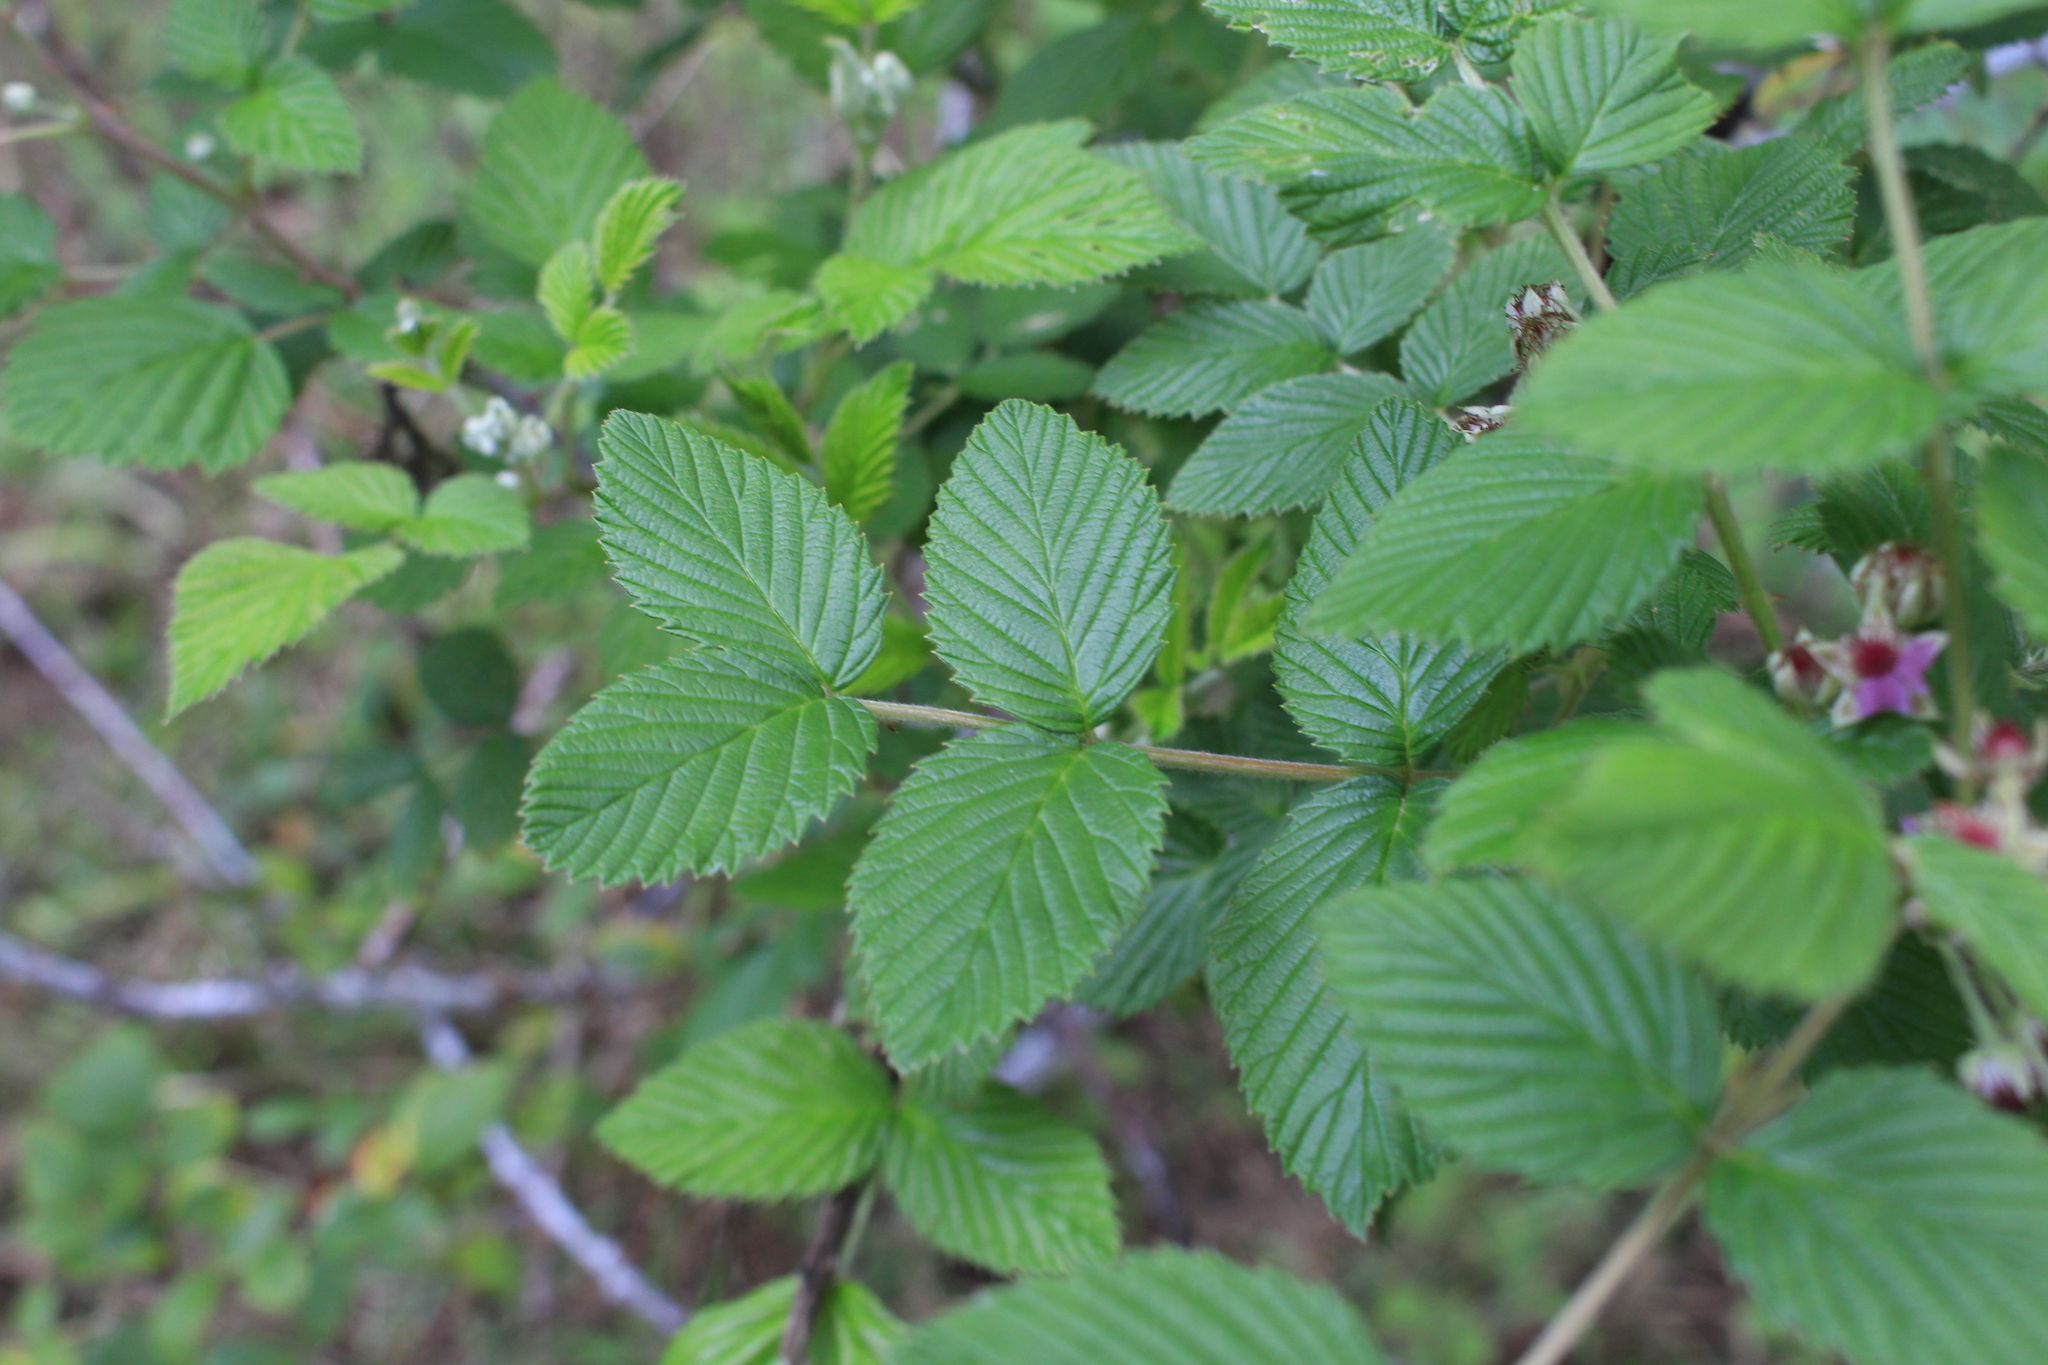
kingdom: Plantae
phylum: Tracheophyta
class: Magnoliopsida
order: Rosales
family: Rosaceae
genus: Rubus
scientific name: Rubus niveus
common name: Snowpeaks raspberry
